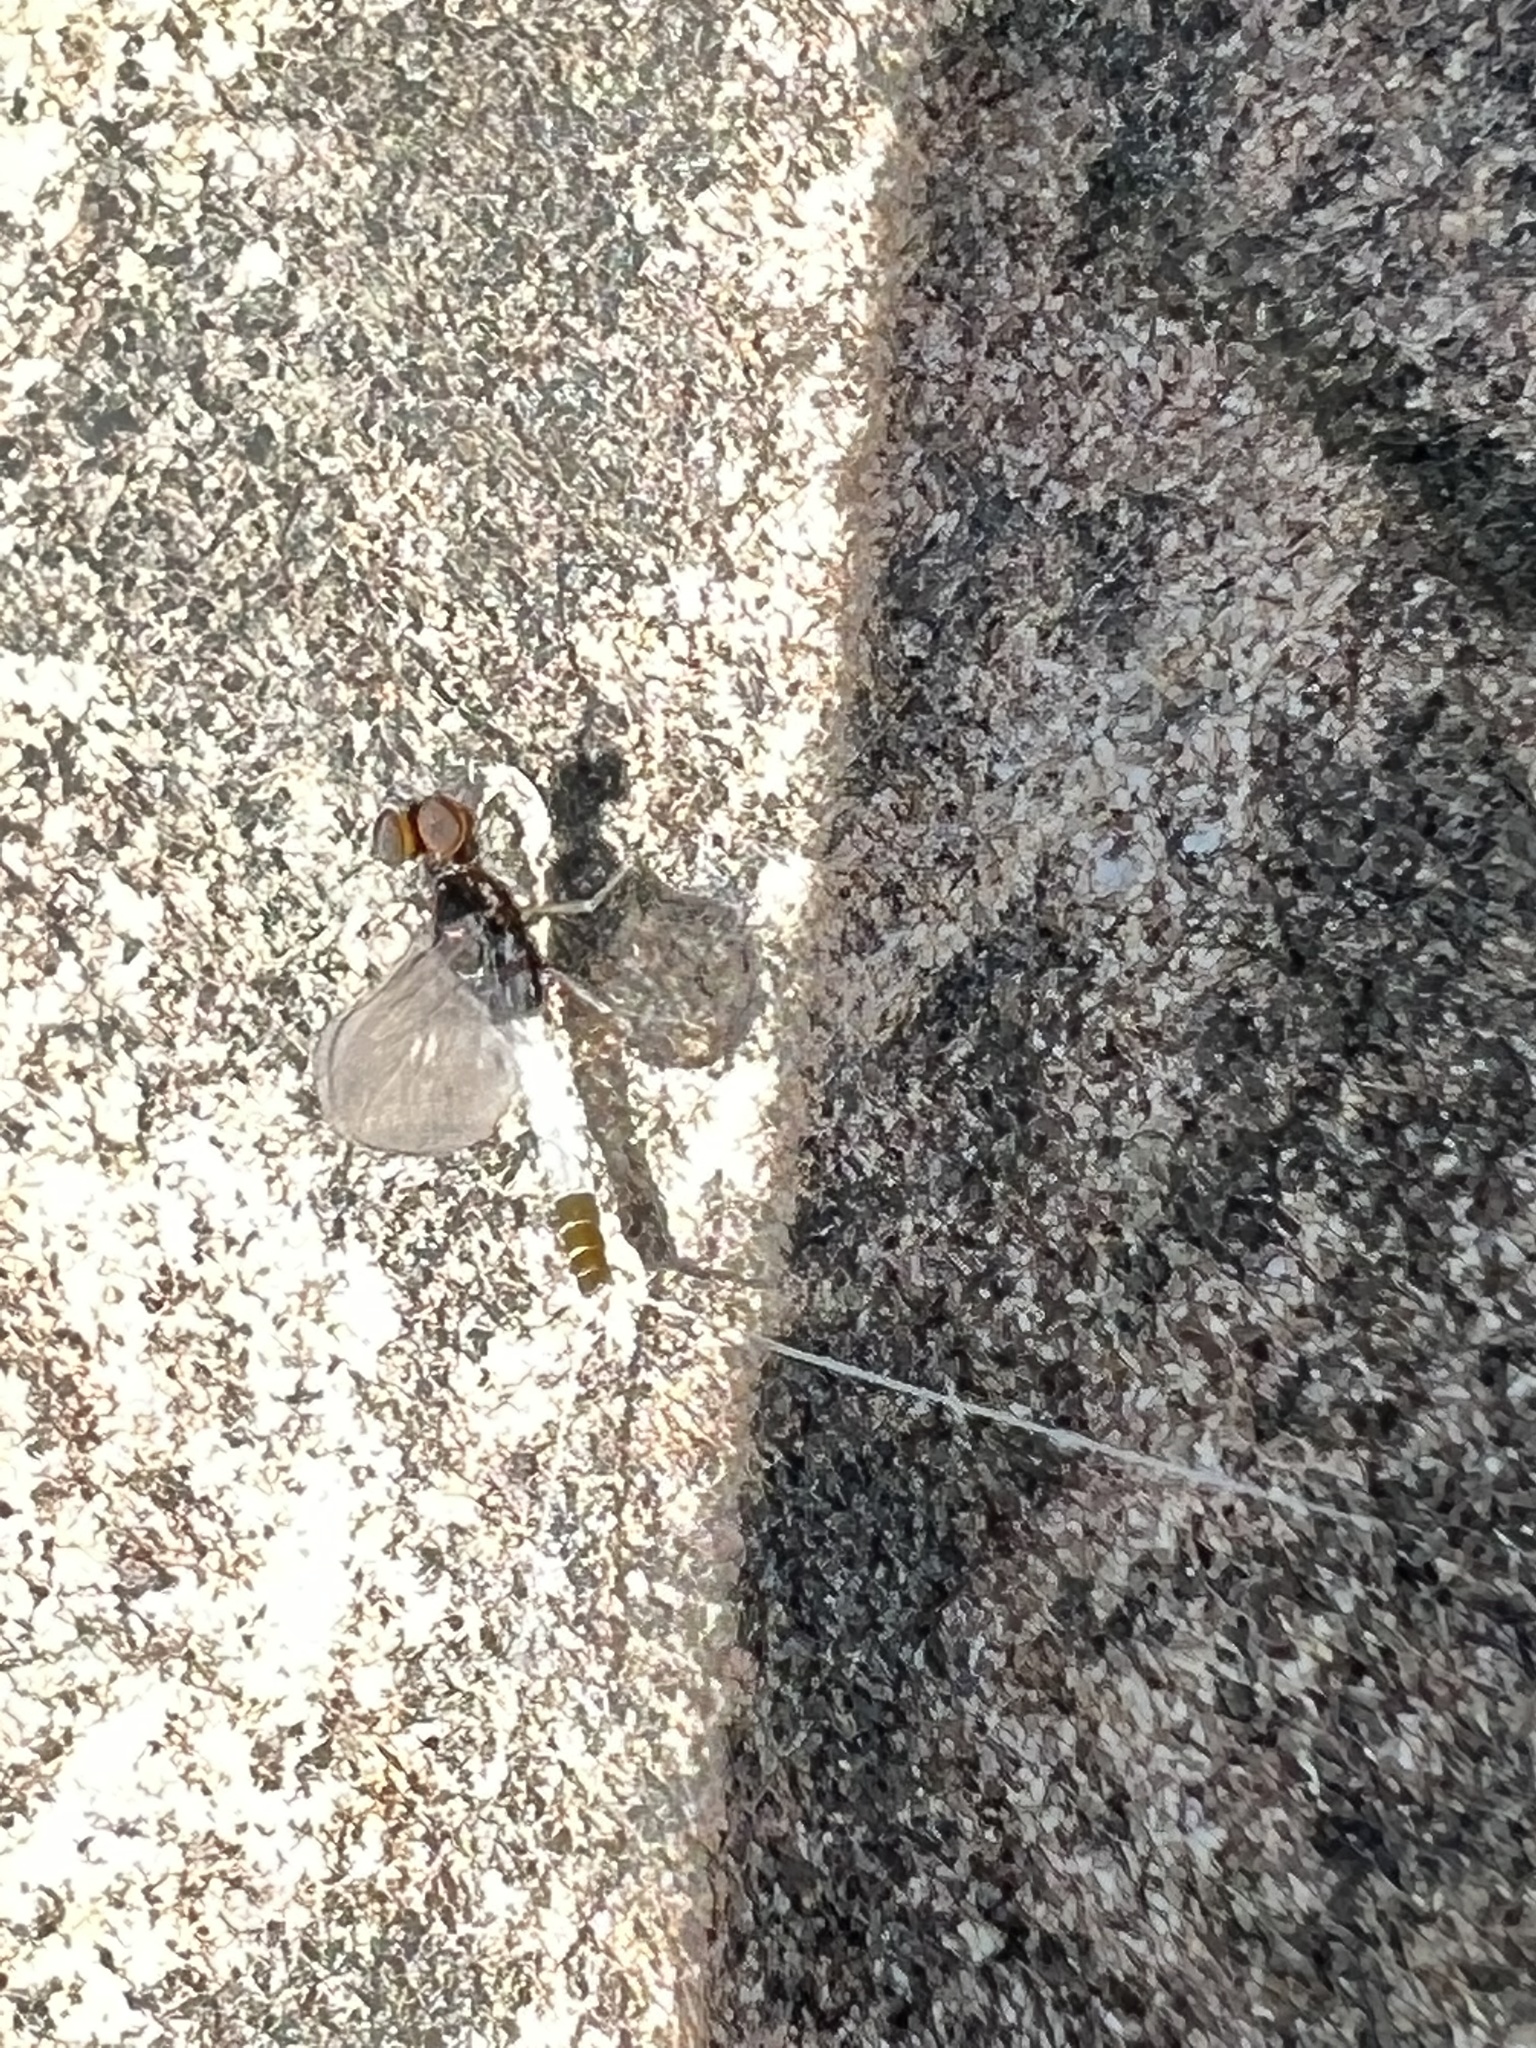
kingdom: Animalia
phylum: Arthropoda
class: Insecta
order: Ephemeroptera
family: Baetidae
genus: Baetis
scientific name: Baetis intercalaris
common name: Small eastern blue-winged olive
